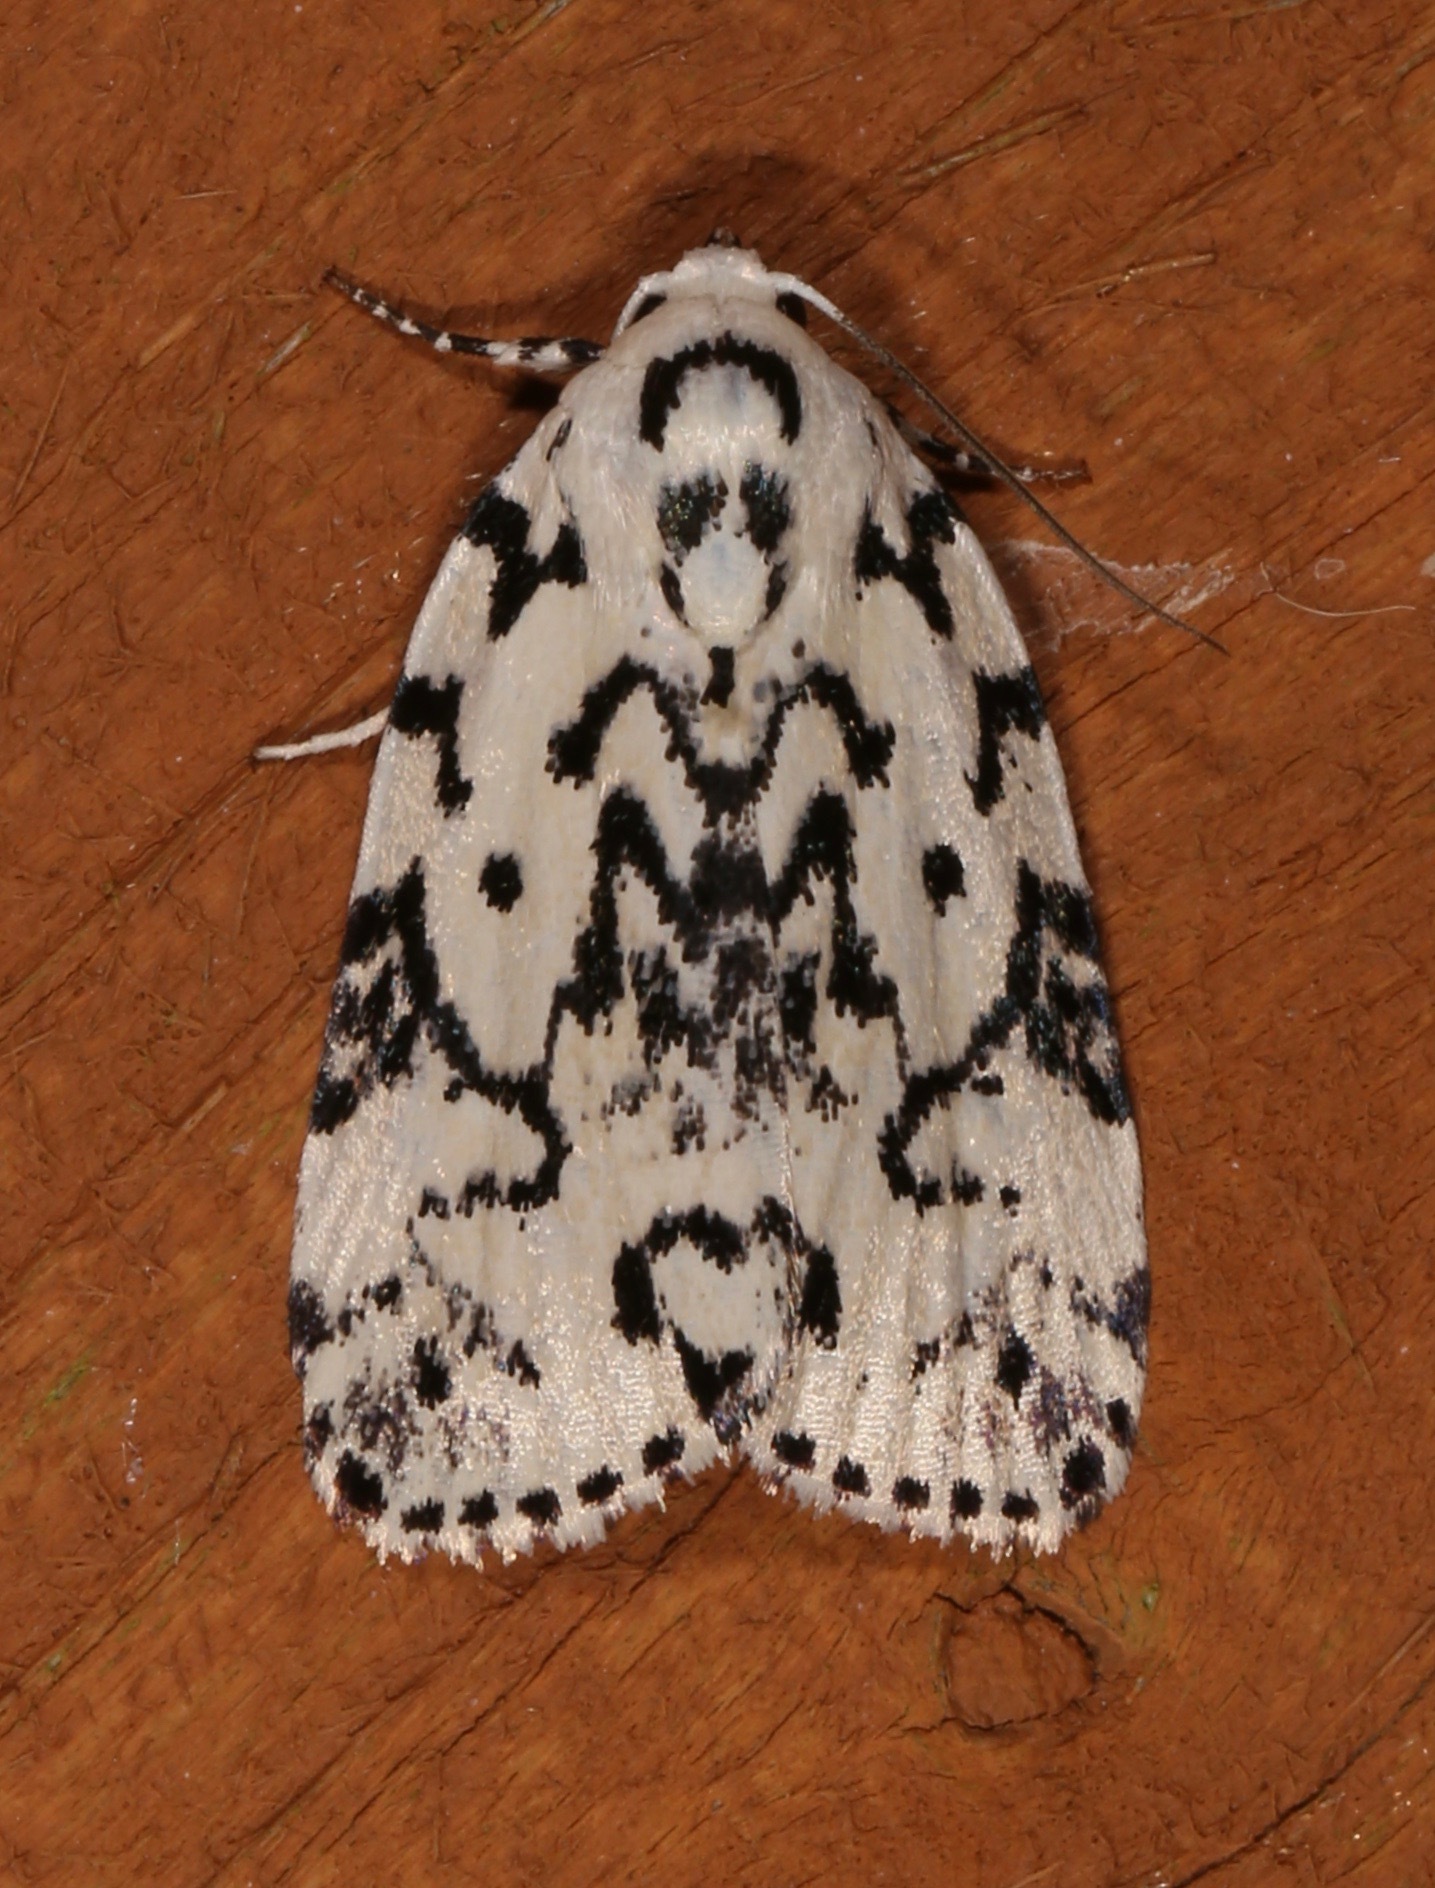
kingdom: Animalia
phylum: Arthropoda
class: Insecta
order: Lepidoptera
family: Noctuidae
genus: Polygrammate
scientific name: Polygrammate hebraeicum
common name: Hebrew moth
